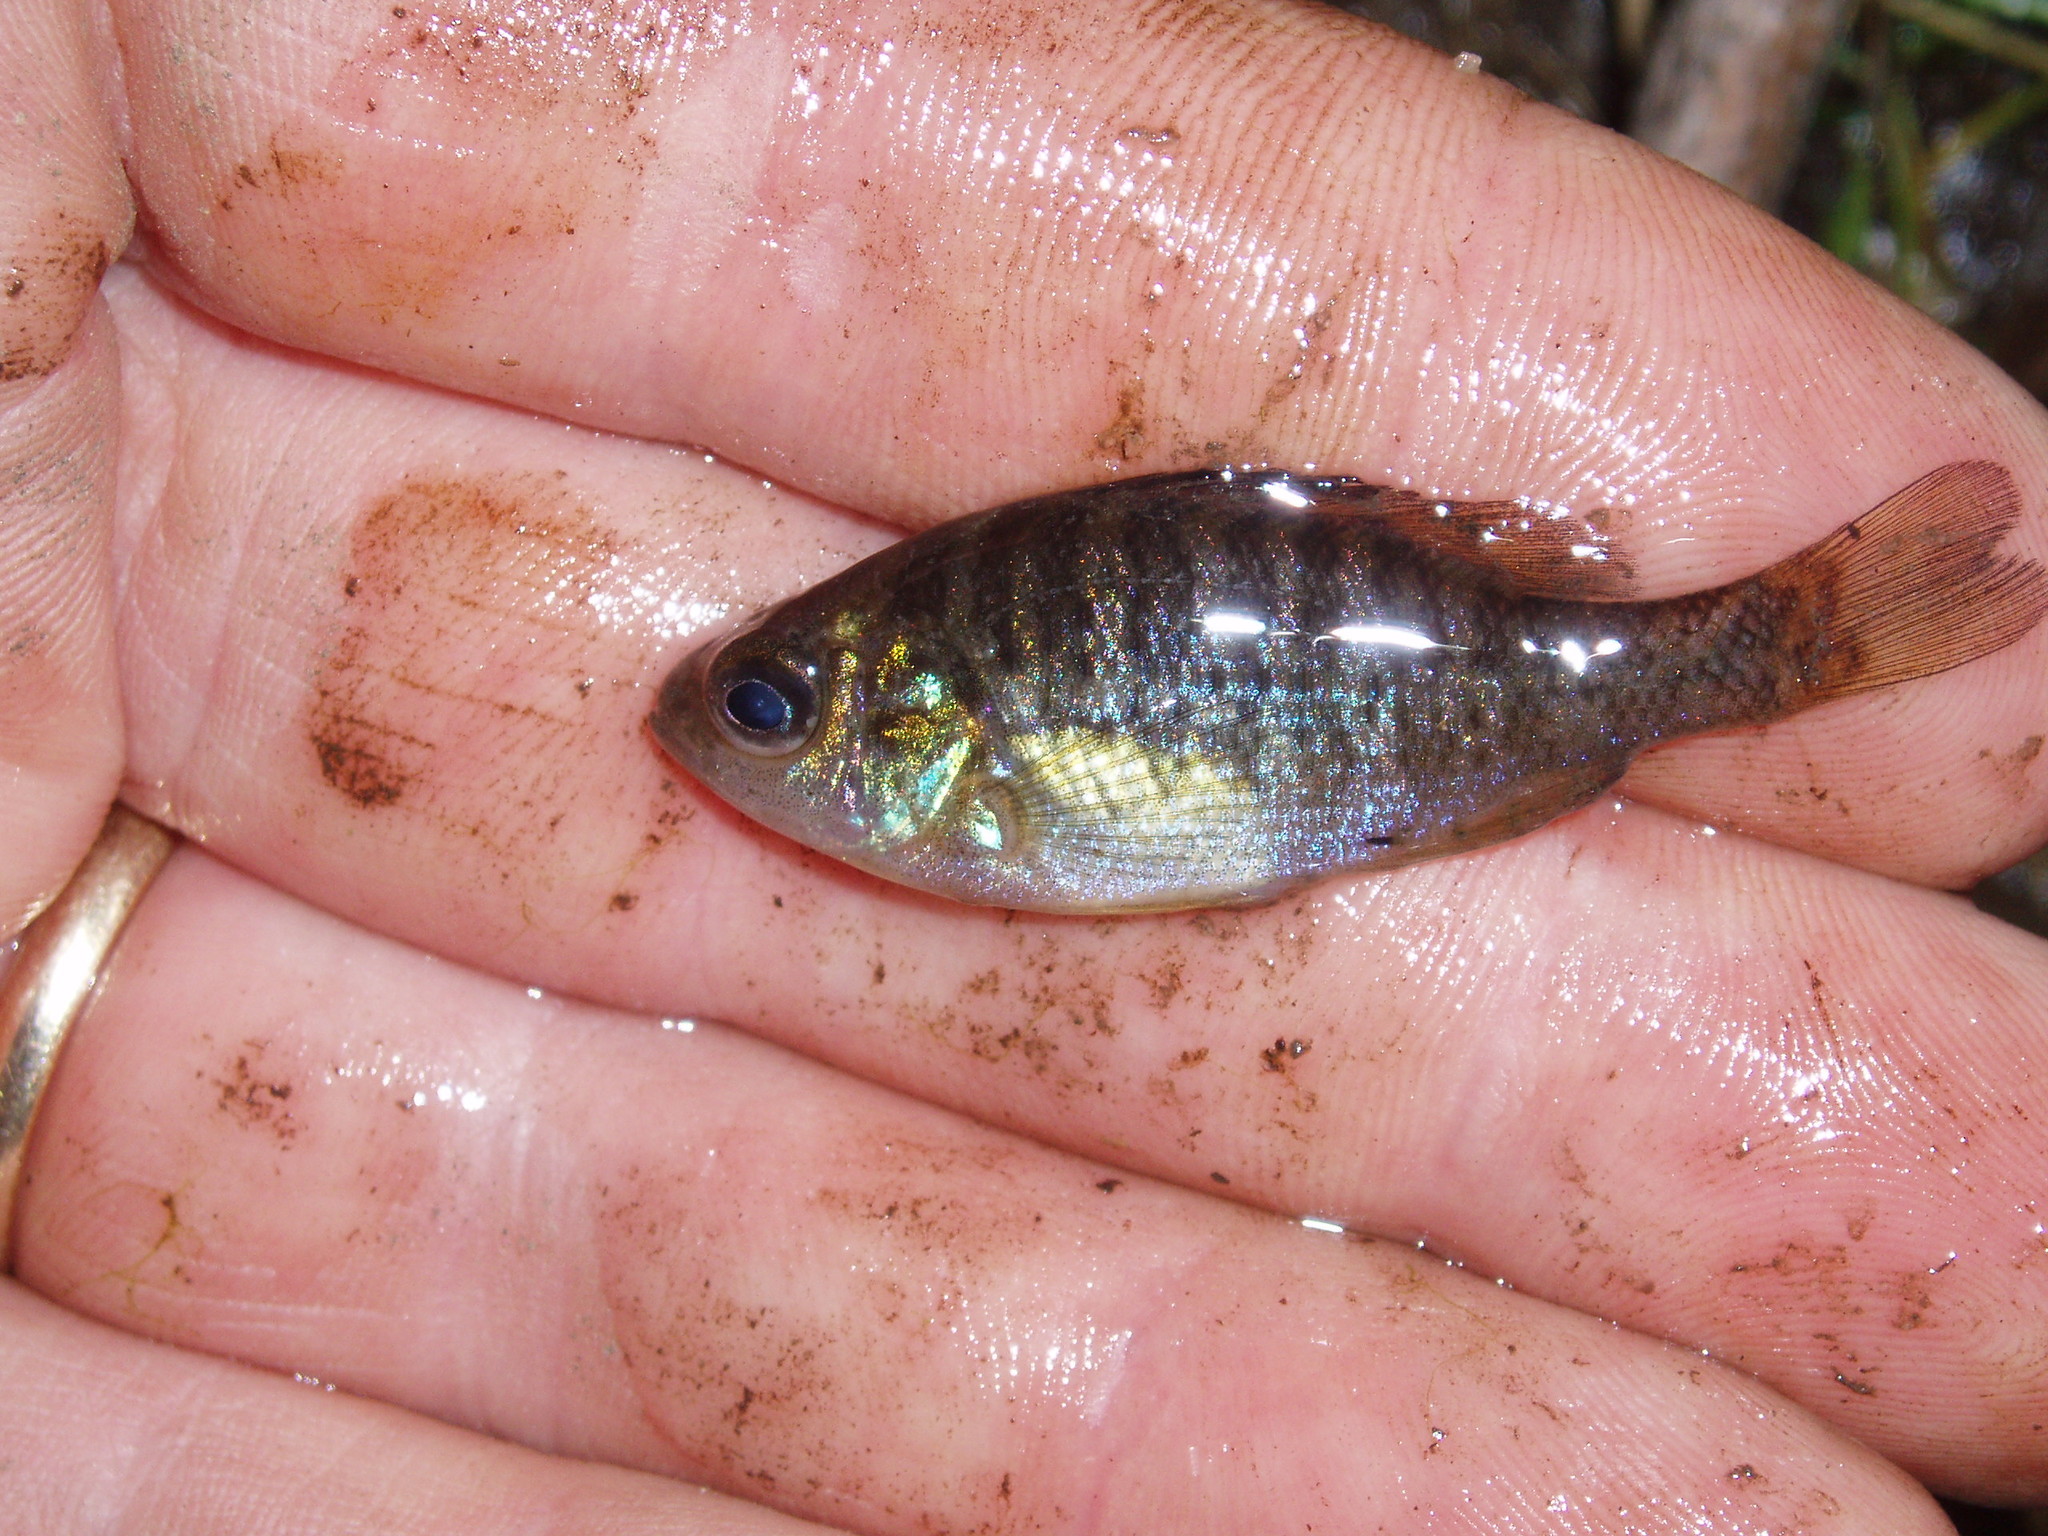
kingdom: Animalia
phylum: Chordata
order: Perciformes
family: Centrarchidae
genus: Lepomis
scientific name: Lepomis macrochirus
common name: Bluegill
